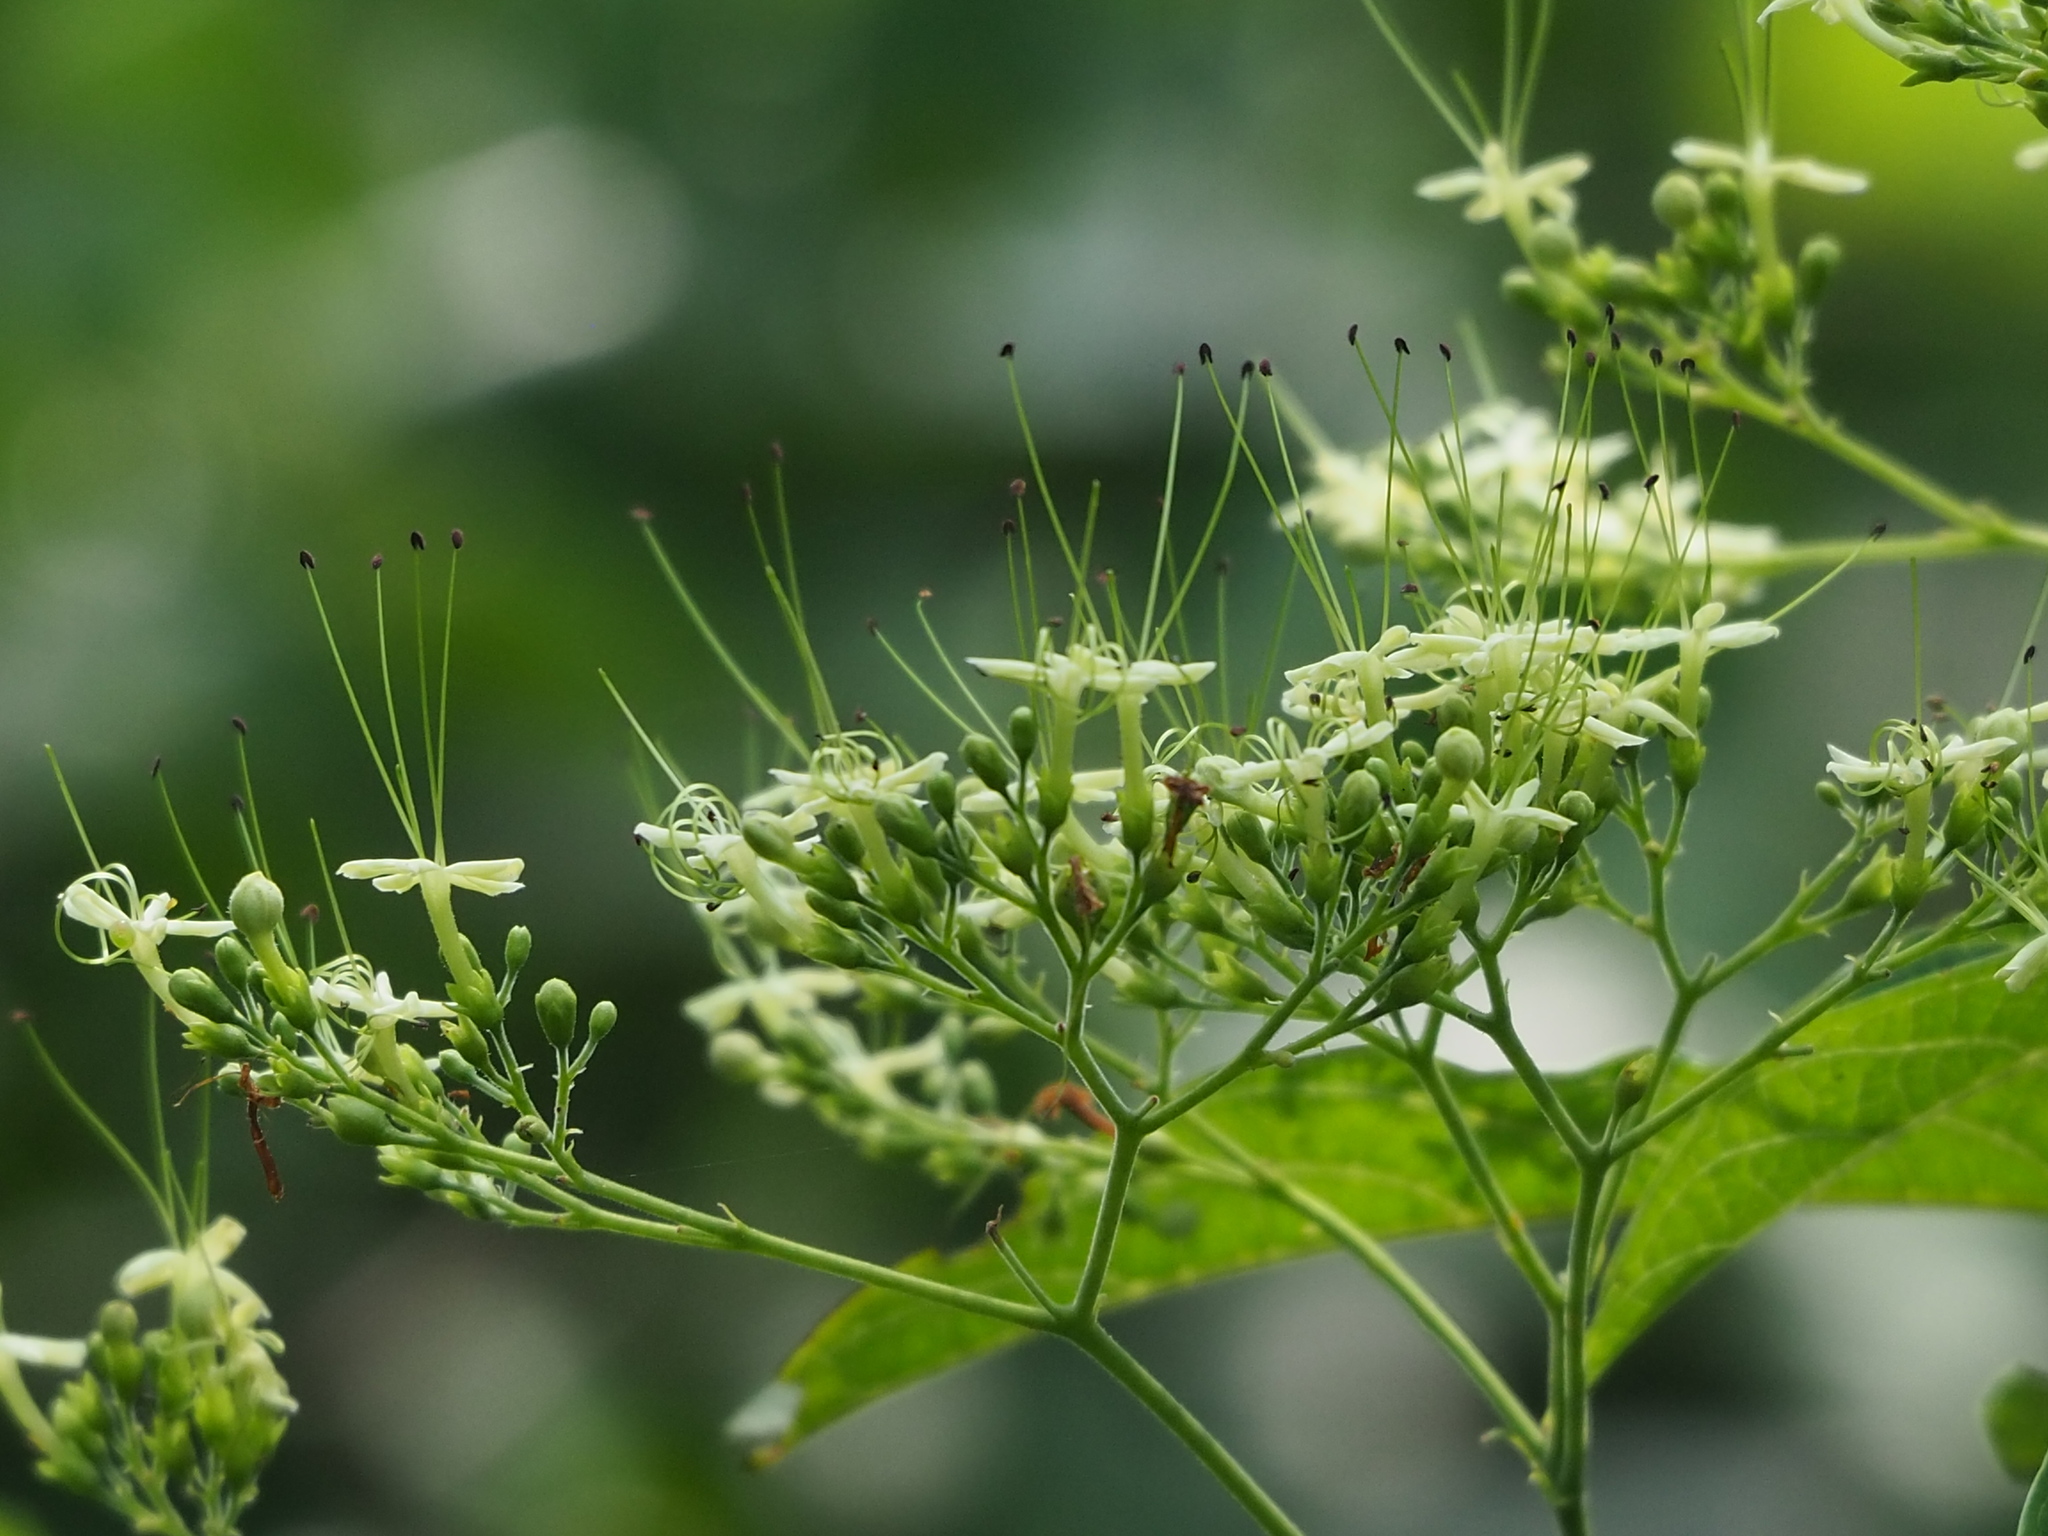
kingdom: Plantae
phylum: Tracheophyta
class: Magnoliopsida
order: Lamiales
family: Lamiaceae
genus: Clerodendrum
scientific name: Clerodendrum cyrtophyllum
